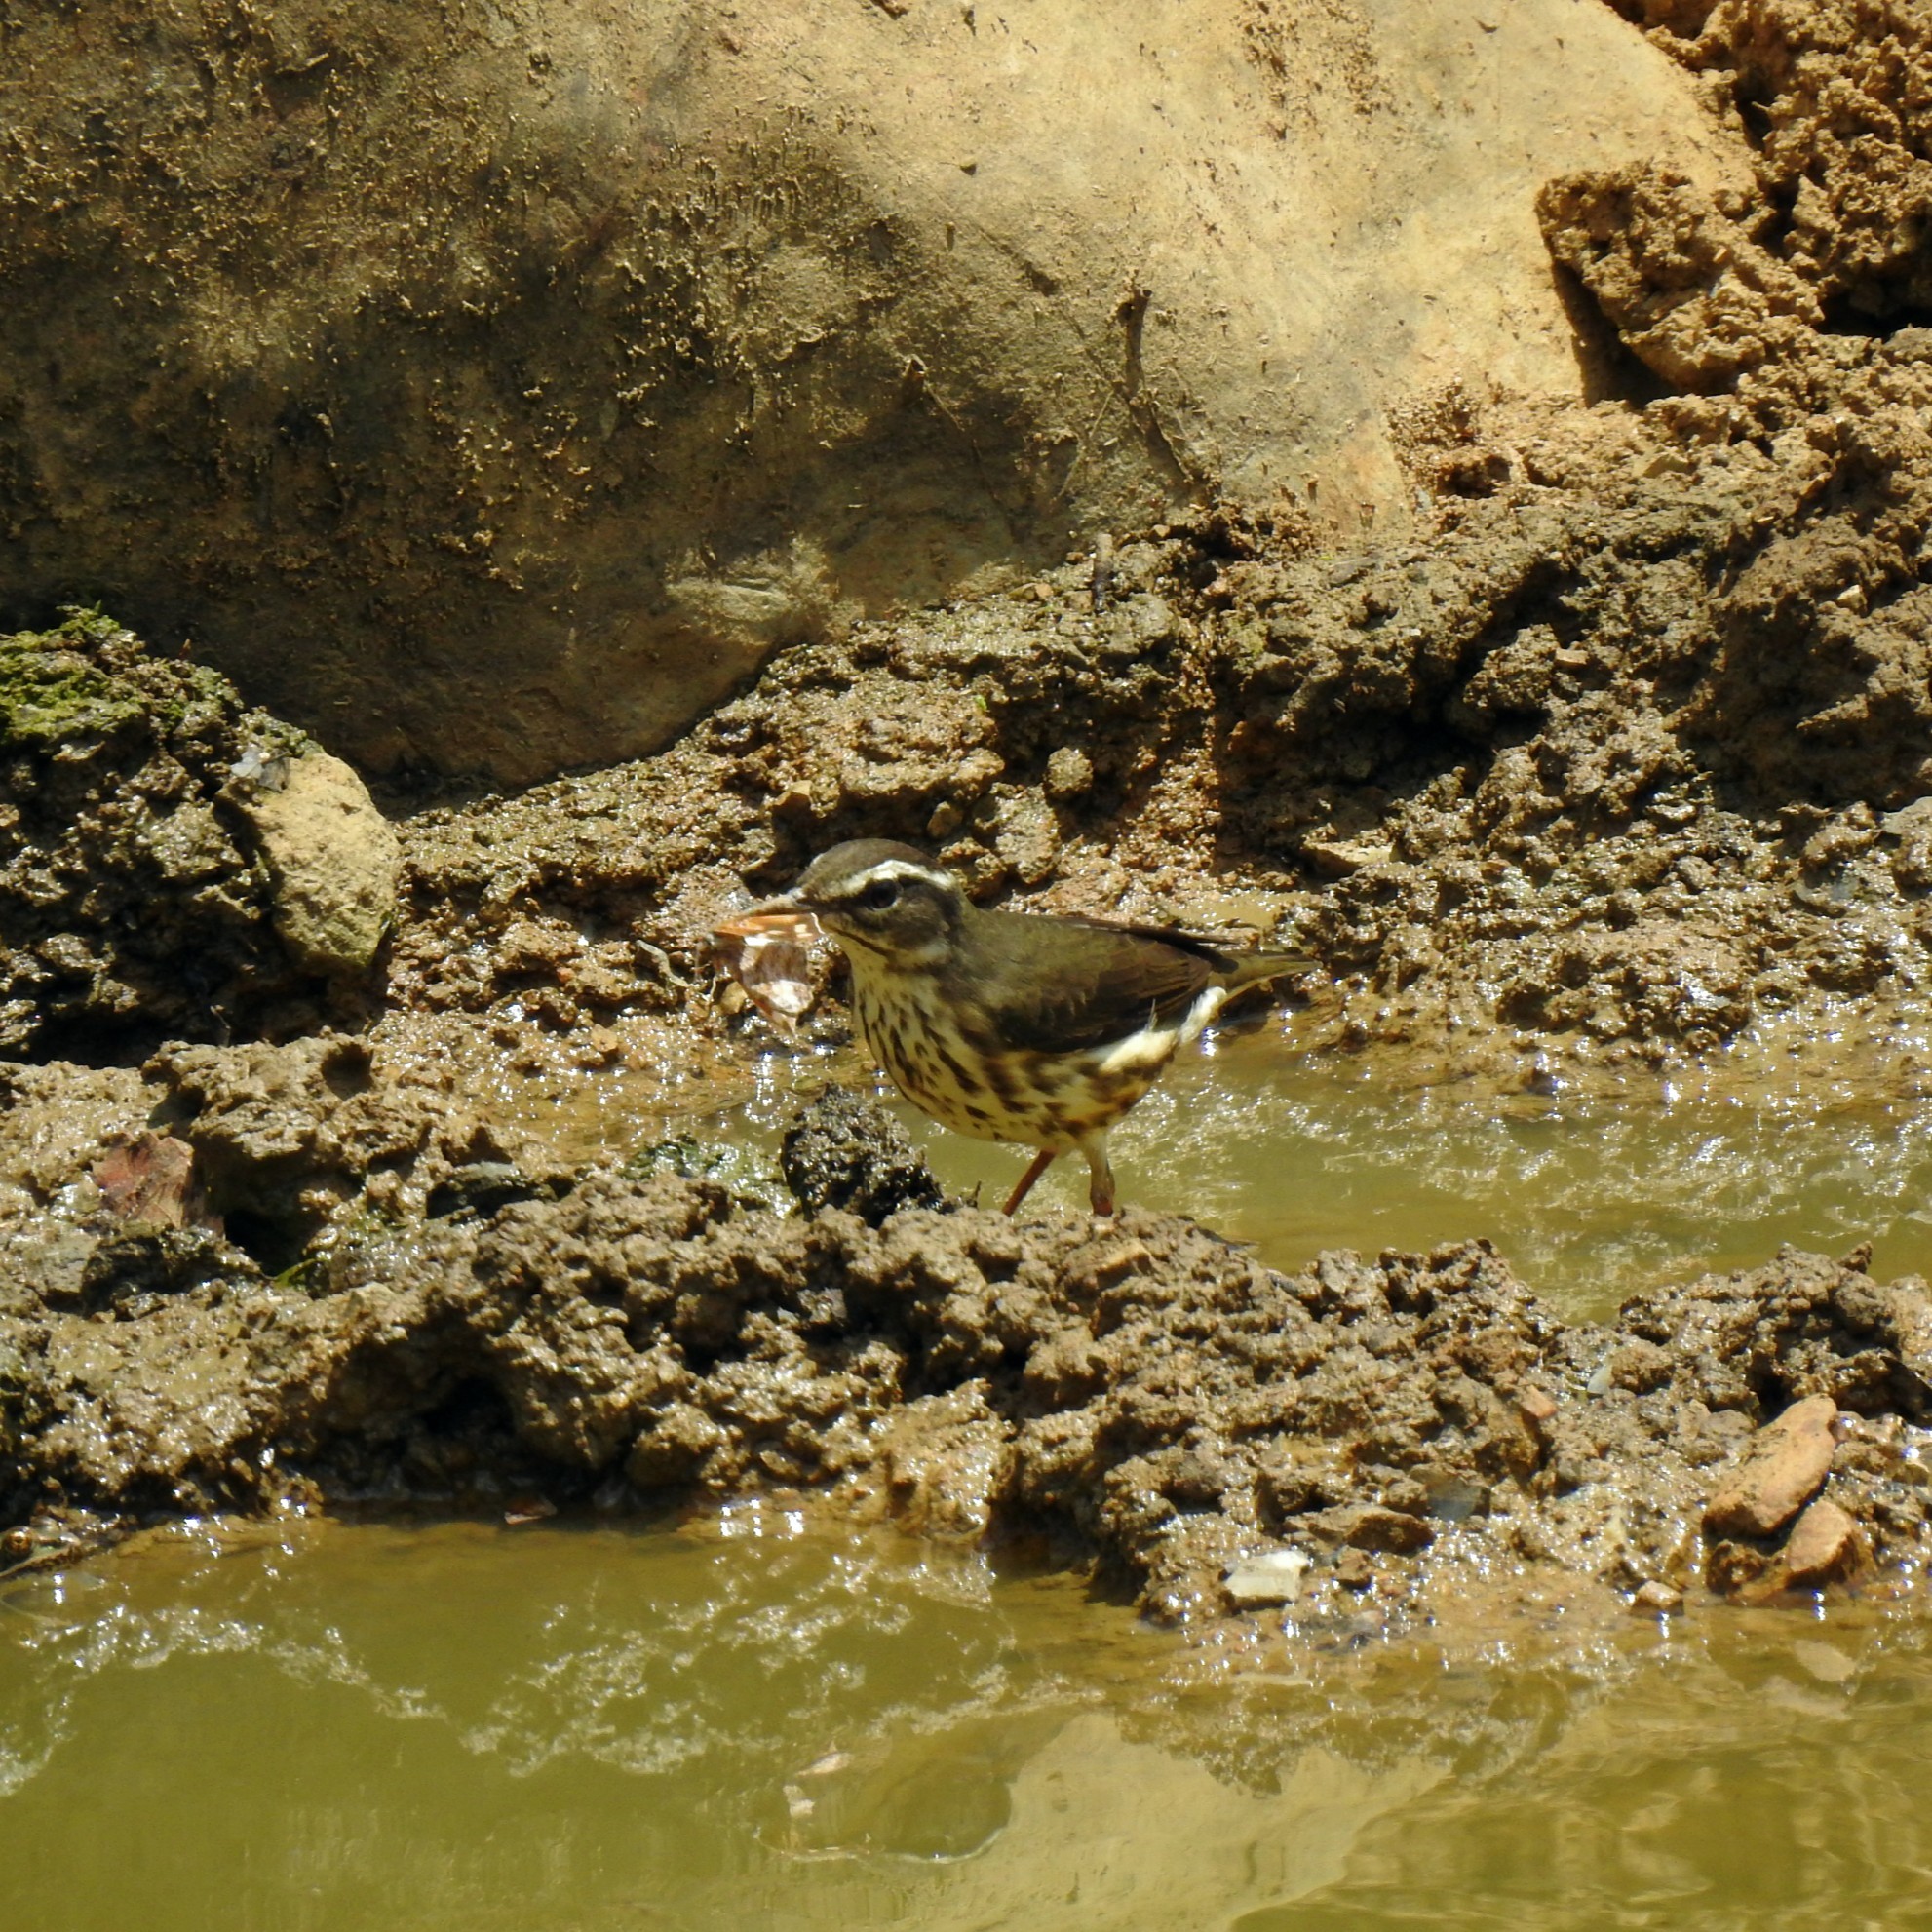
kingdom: Animalia
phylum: Chordata
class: Aves
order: Passeriformes
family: Parulidae
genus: Parkesia
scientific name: Parkesia motacilla
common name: Louisiana waterthrush
